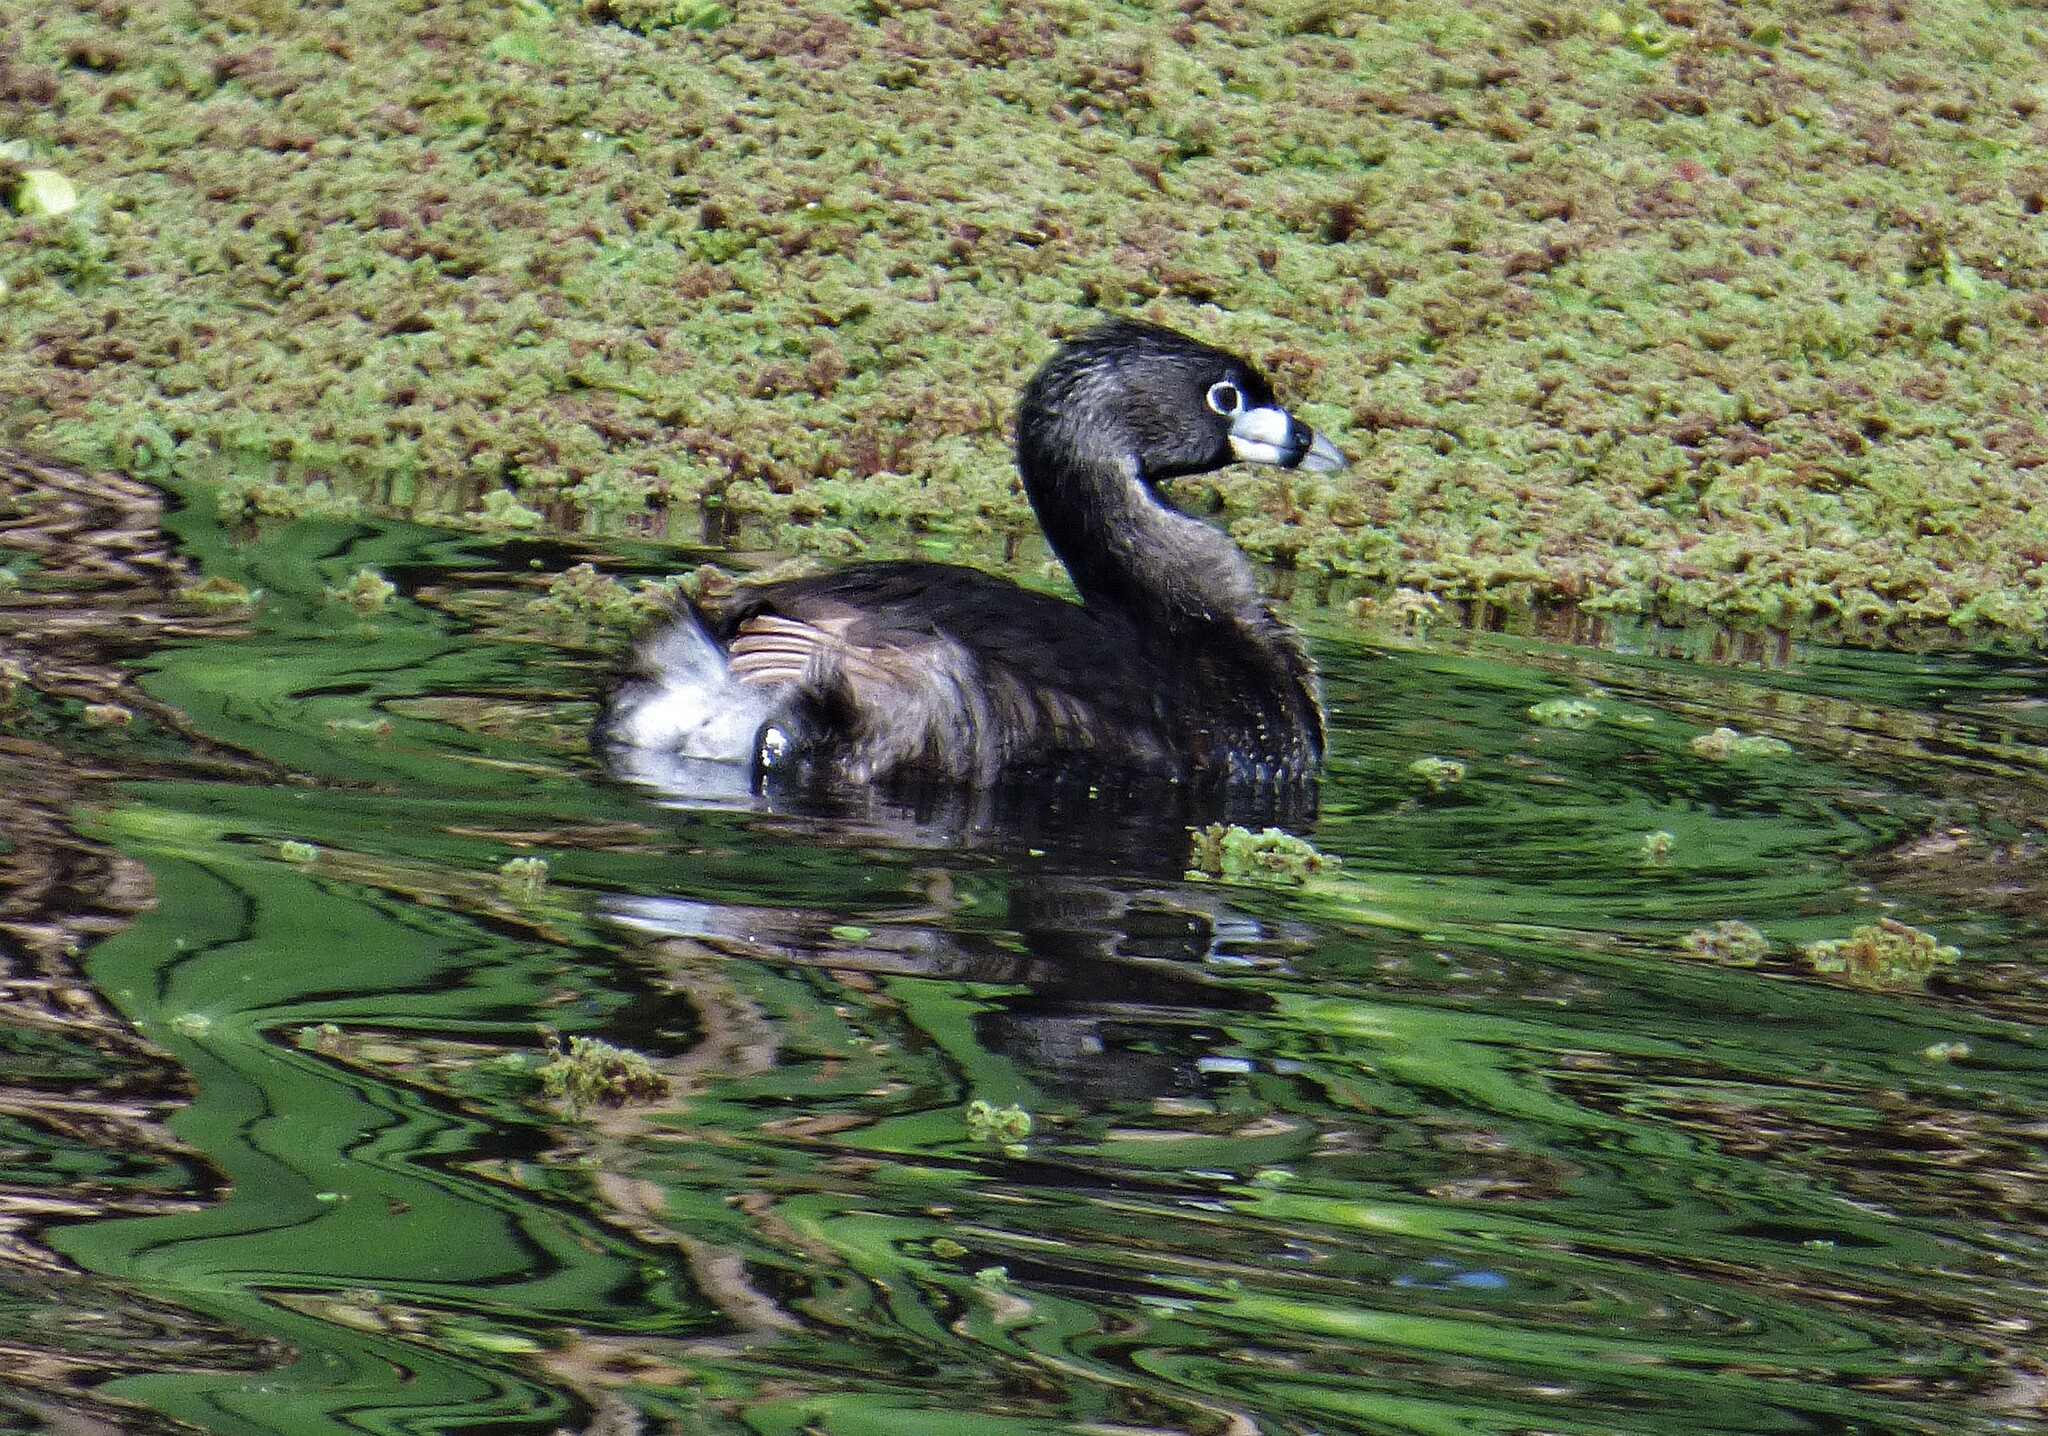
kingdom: Animalia
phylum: Chordata
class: Aves
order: Podicipediformes
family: Podicipedidae
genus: Podilymbus
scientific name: Podilymbus podiceps
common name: Pied-billed grebe
